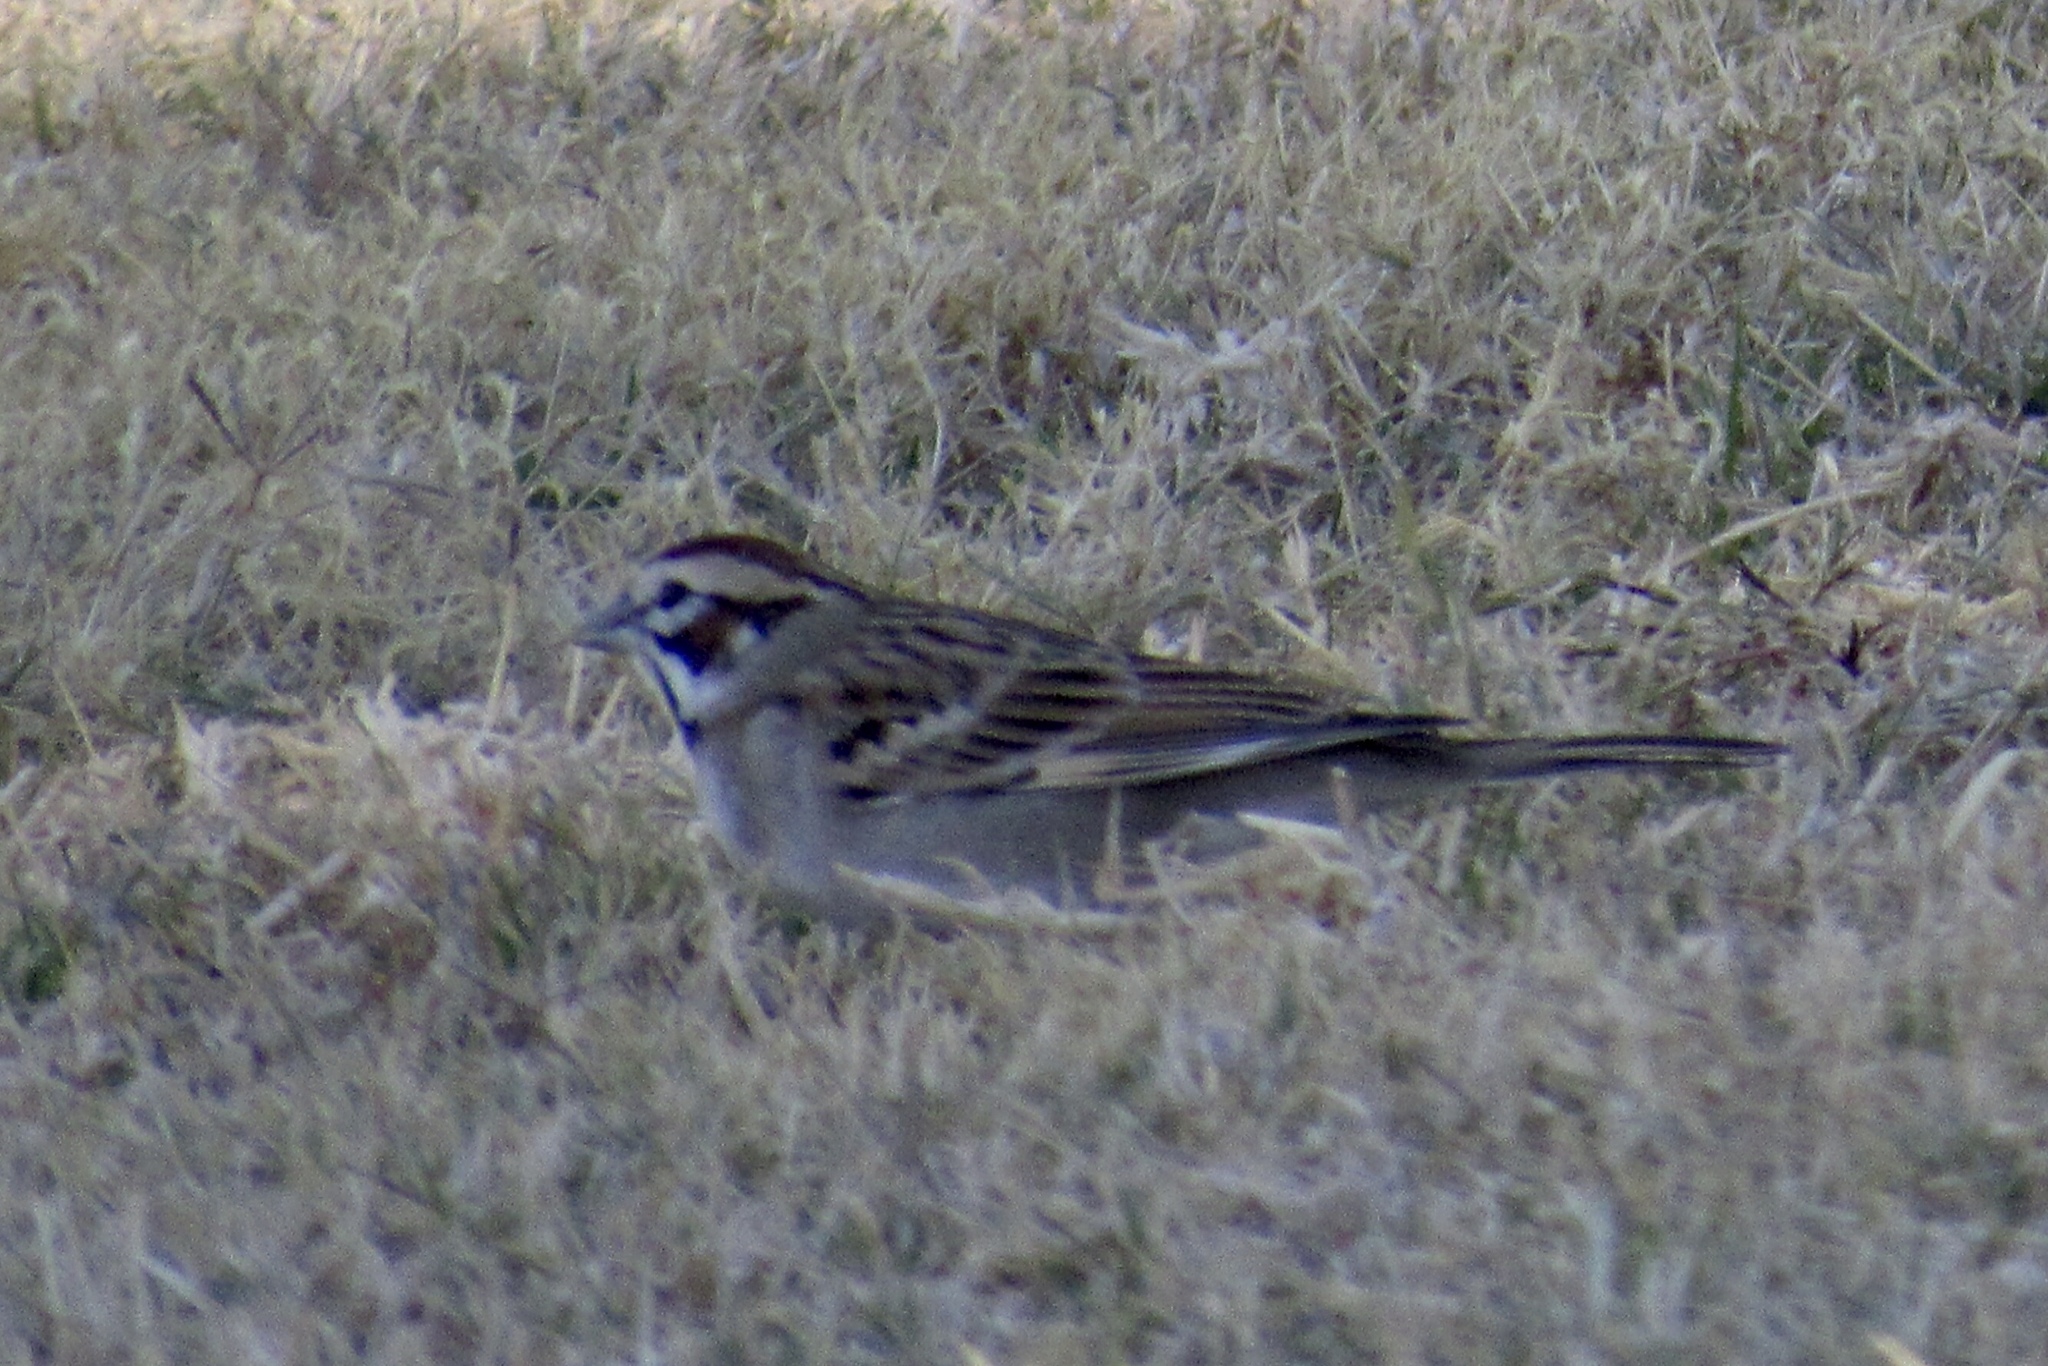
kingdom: Animalia
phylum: Chordata
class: Aves
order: Passeriformes
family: Passerellidae
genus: Chondestes
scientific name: Chondestes grammacus
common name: Lark sparrow
